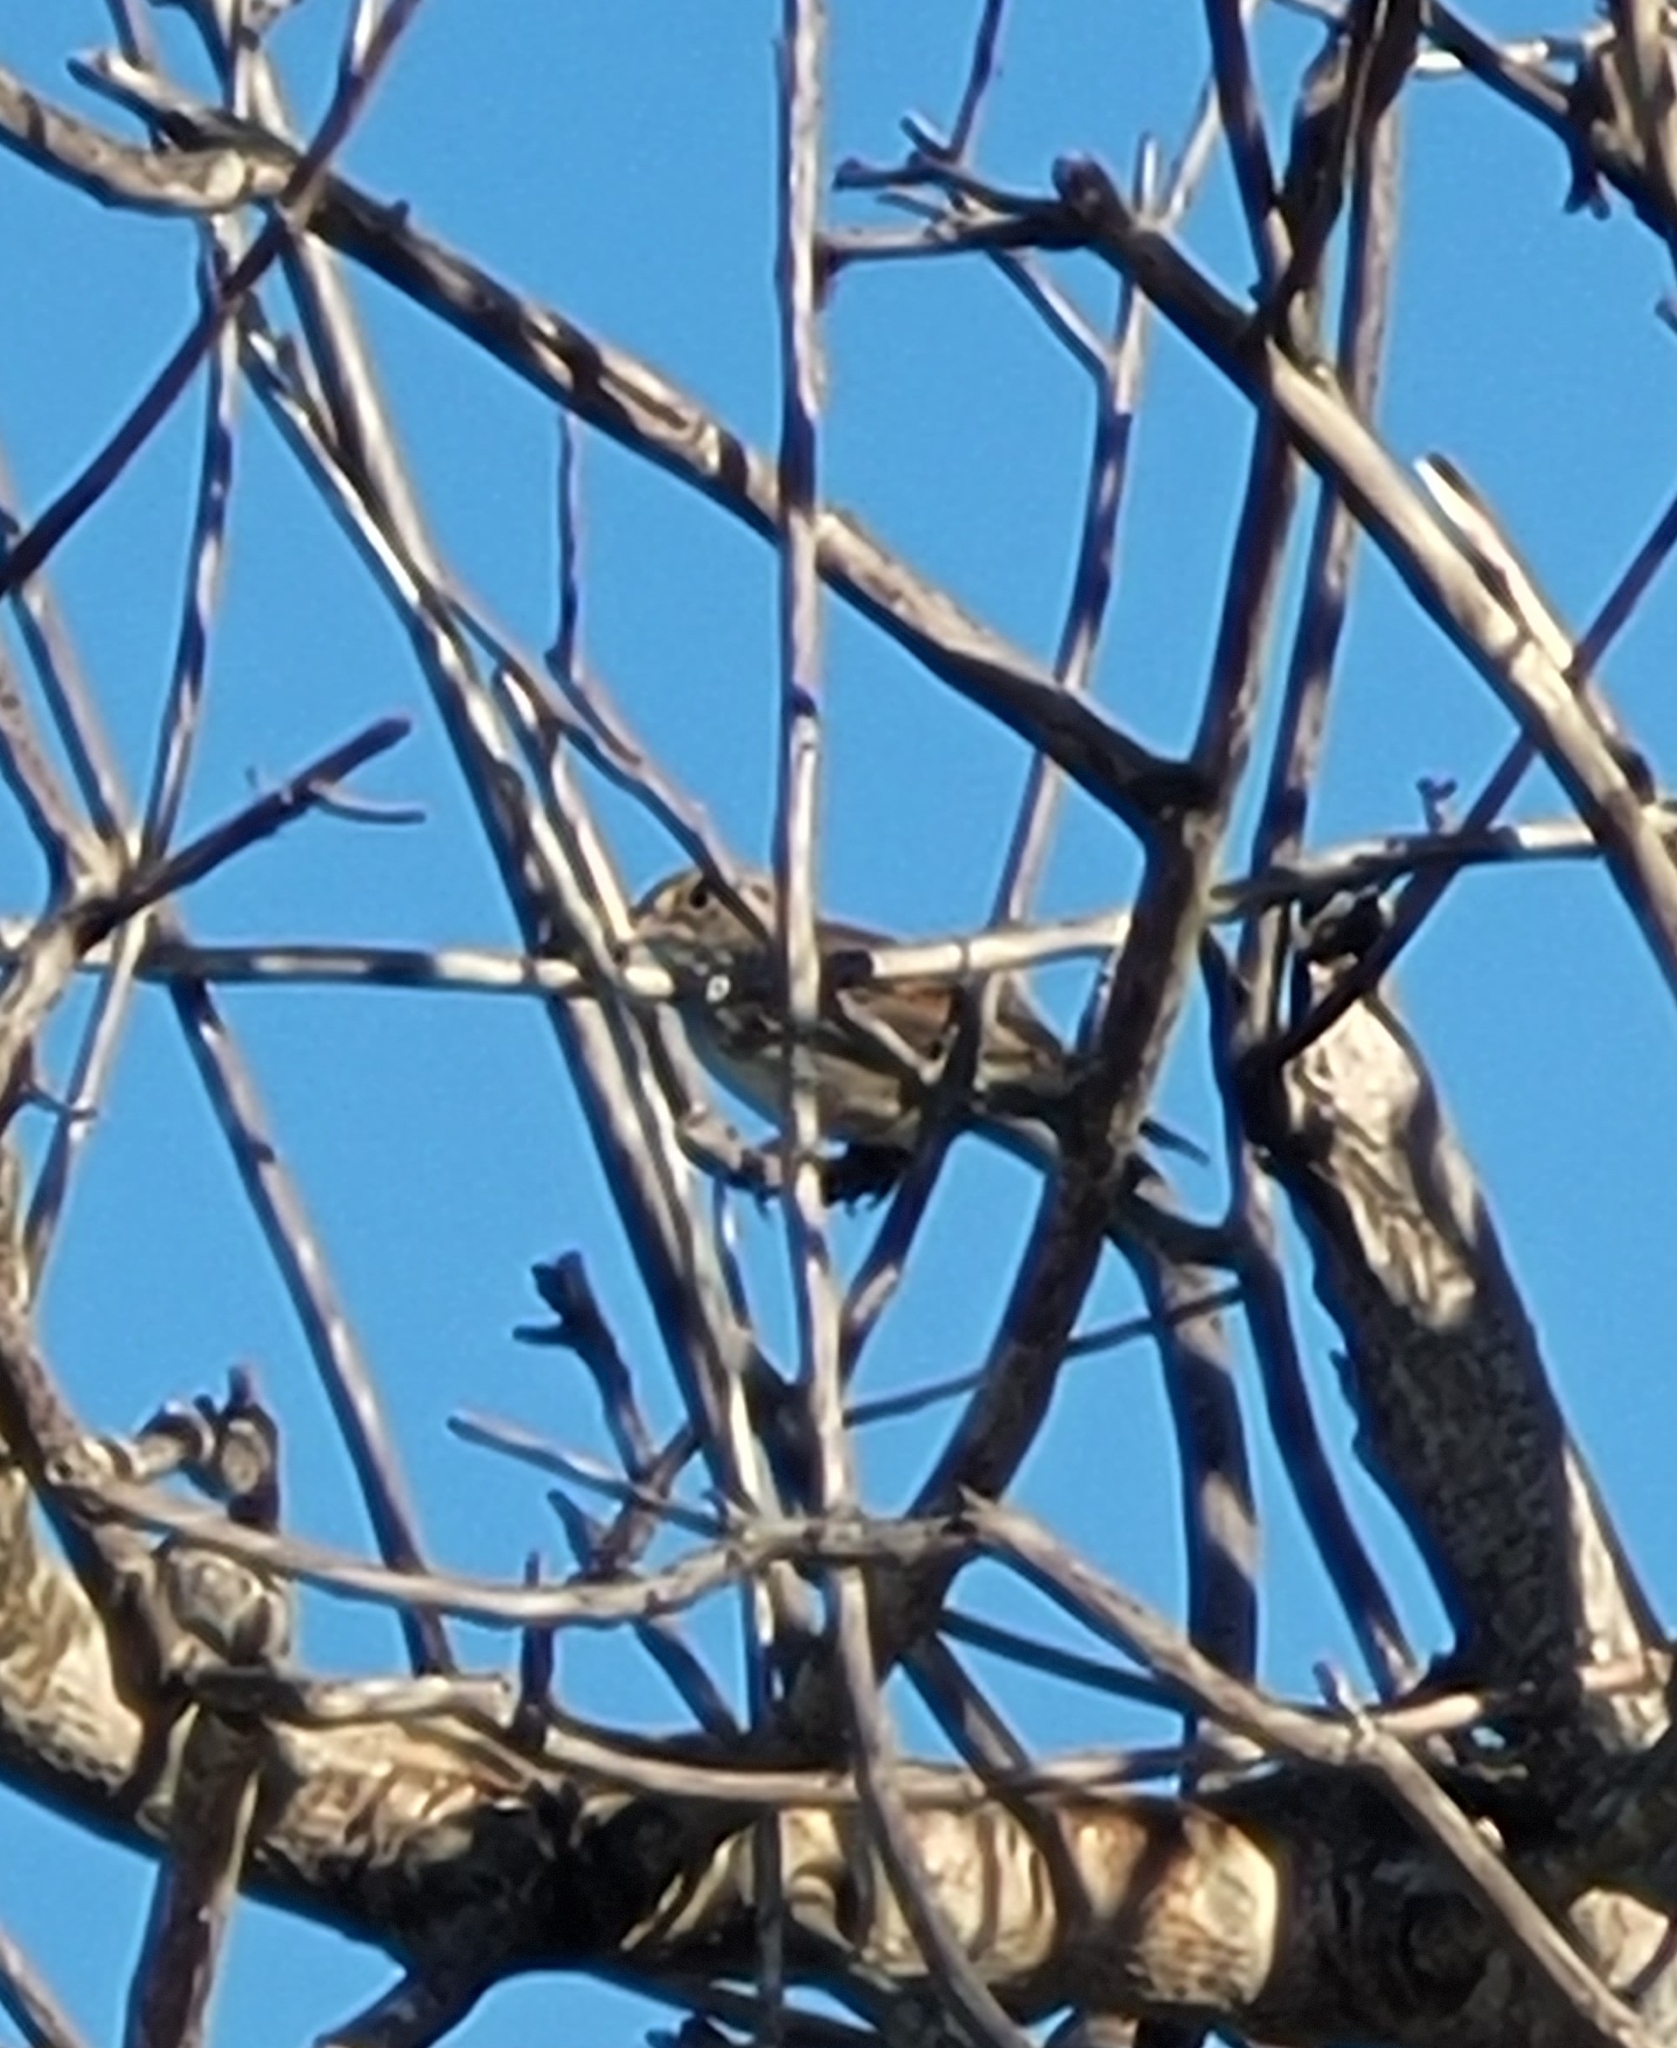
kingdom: Animalia
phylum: Chordata
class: Aves
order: Passeriformes
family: Passerellidae
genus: Ammodramus
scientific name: Ammodramus humeralis
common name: Grassland sparrow
